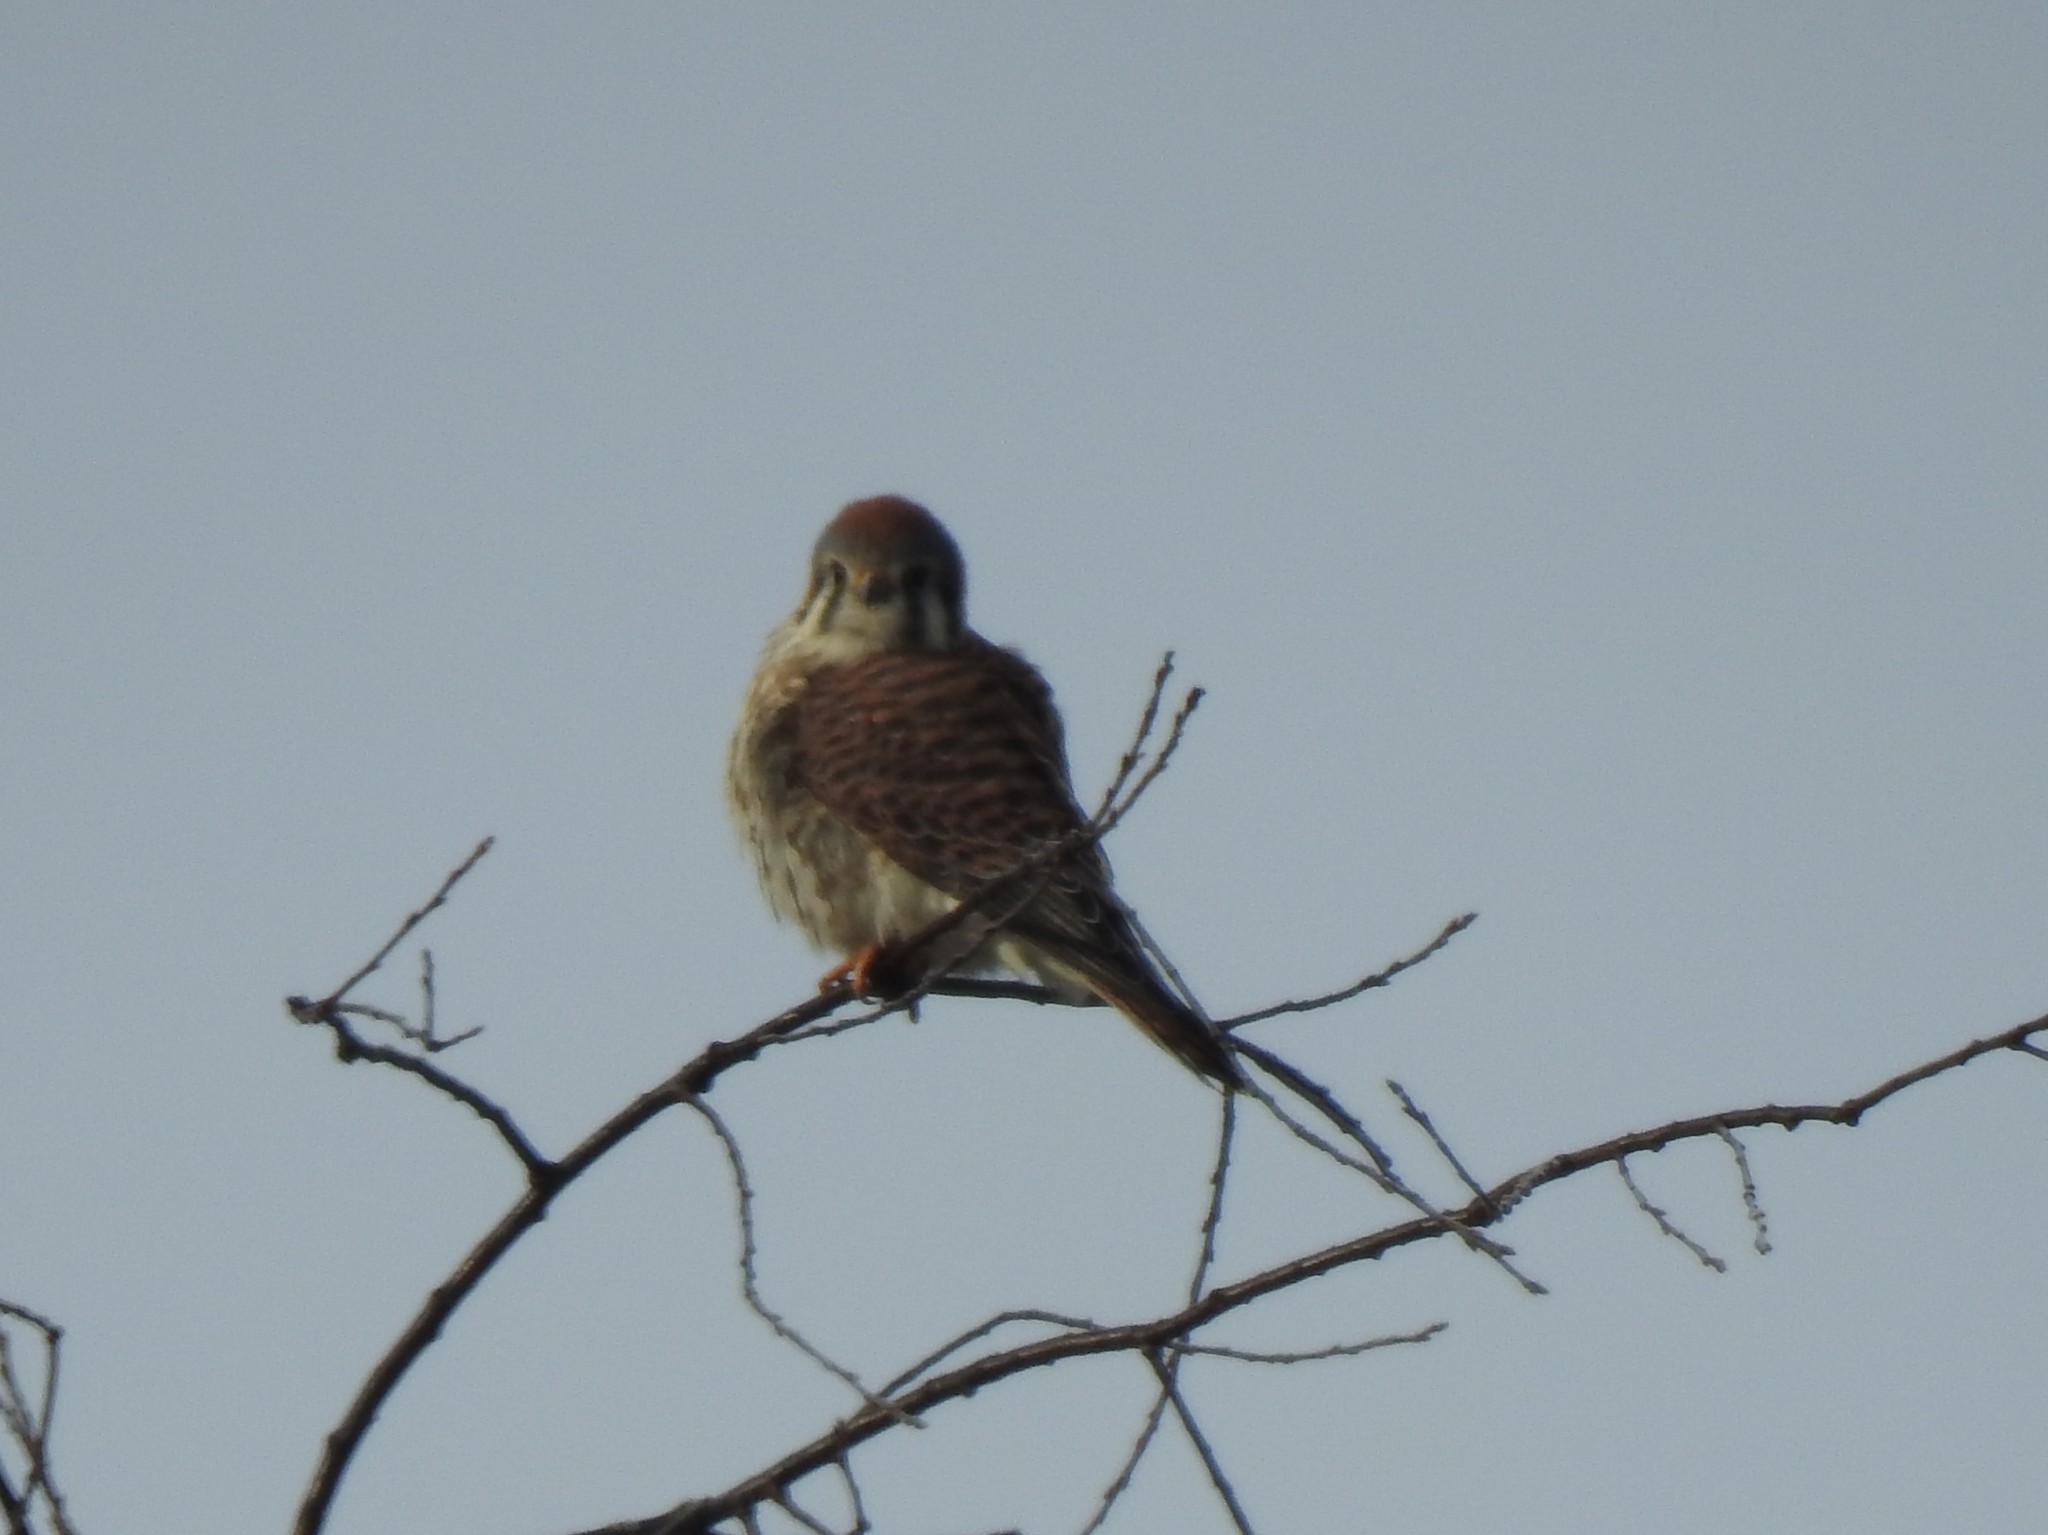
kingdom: Animalia
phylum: Chordata
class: Aves
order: Falconiformes
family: Falconidae
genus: Falco
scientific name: Falco sparverius
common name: American kestrel
